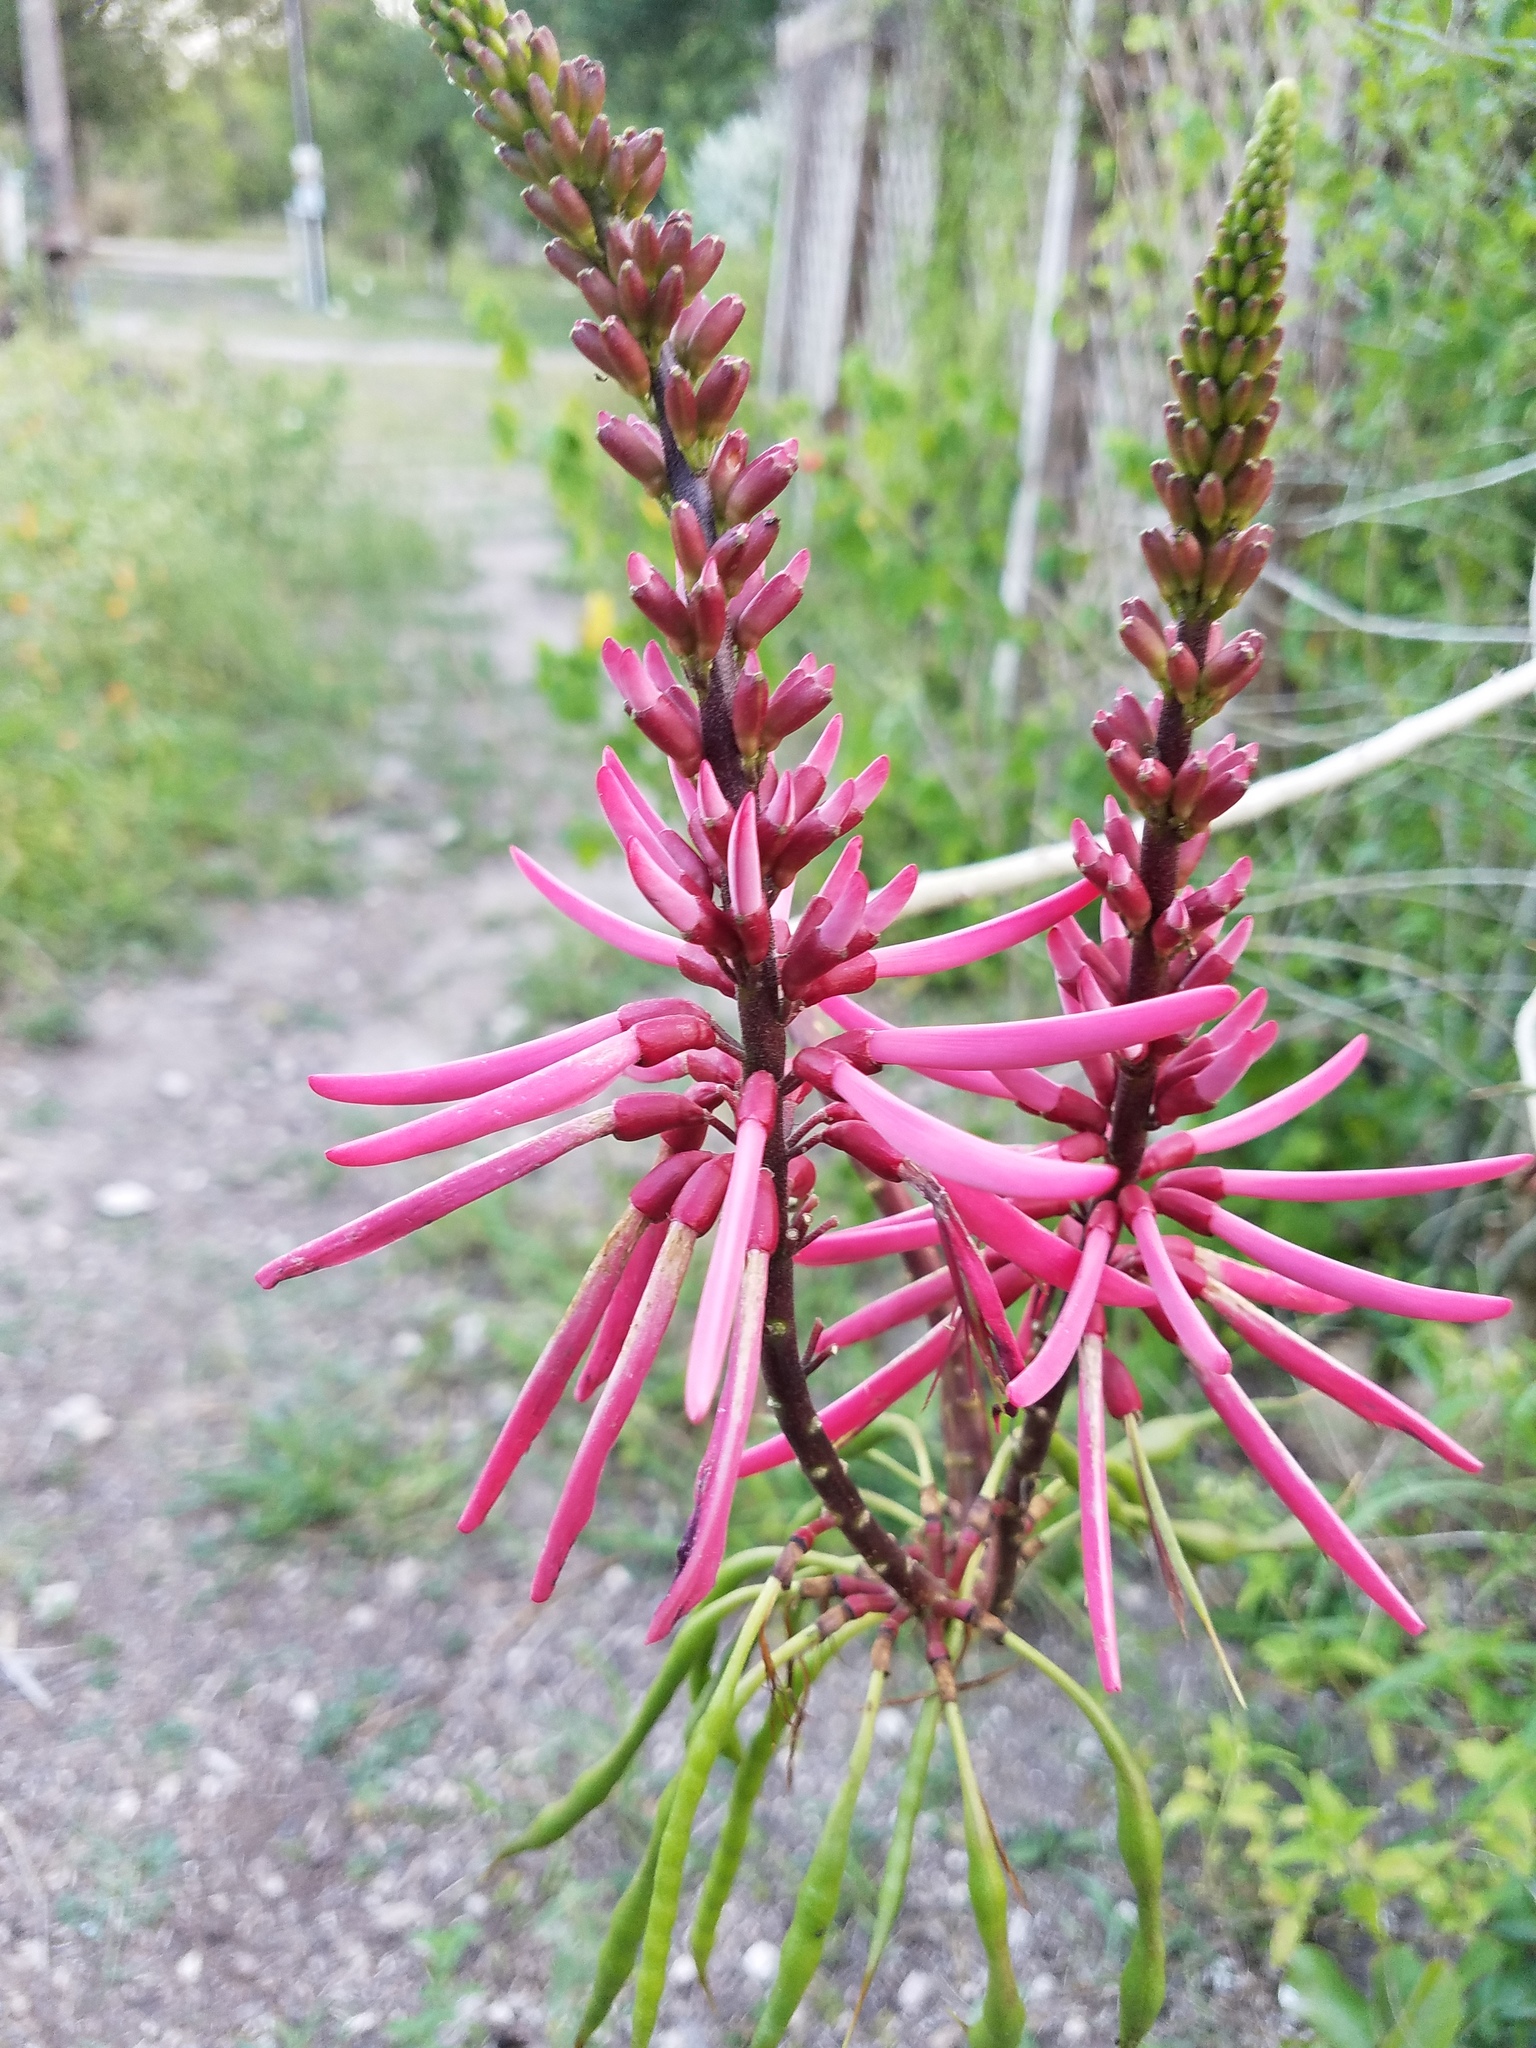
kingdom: Plantae
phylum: Tracheophyta
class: Magnoliopsida
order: Fabales
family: Fabaceae
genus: Erythrina
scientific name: Erythrina herbacea
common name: Coral-bean
